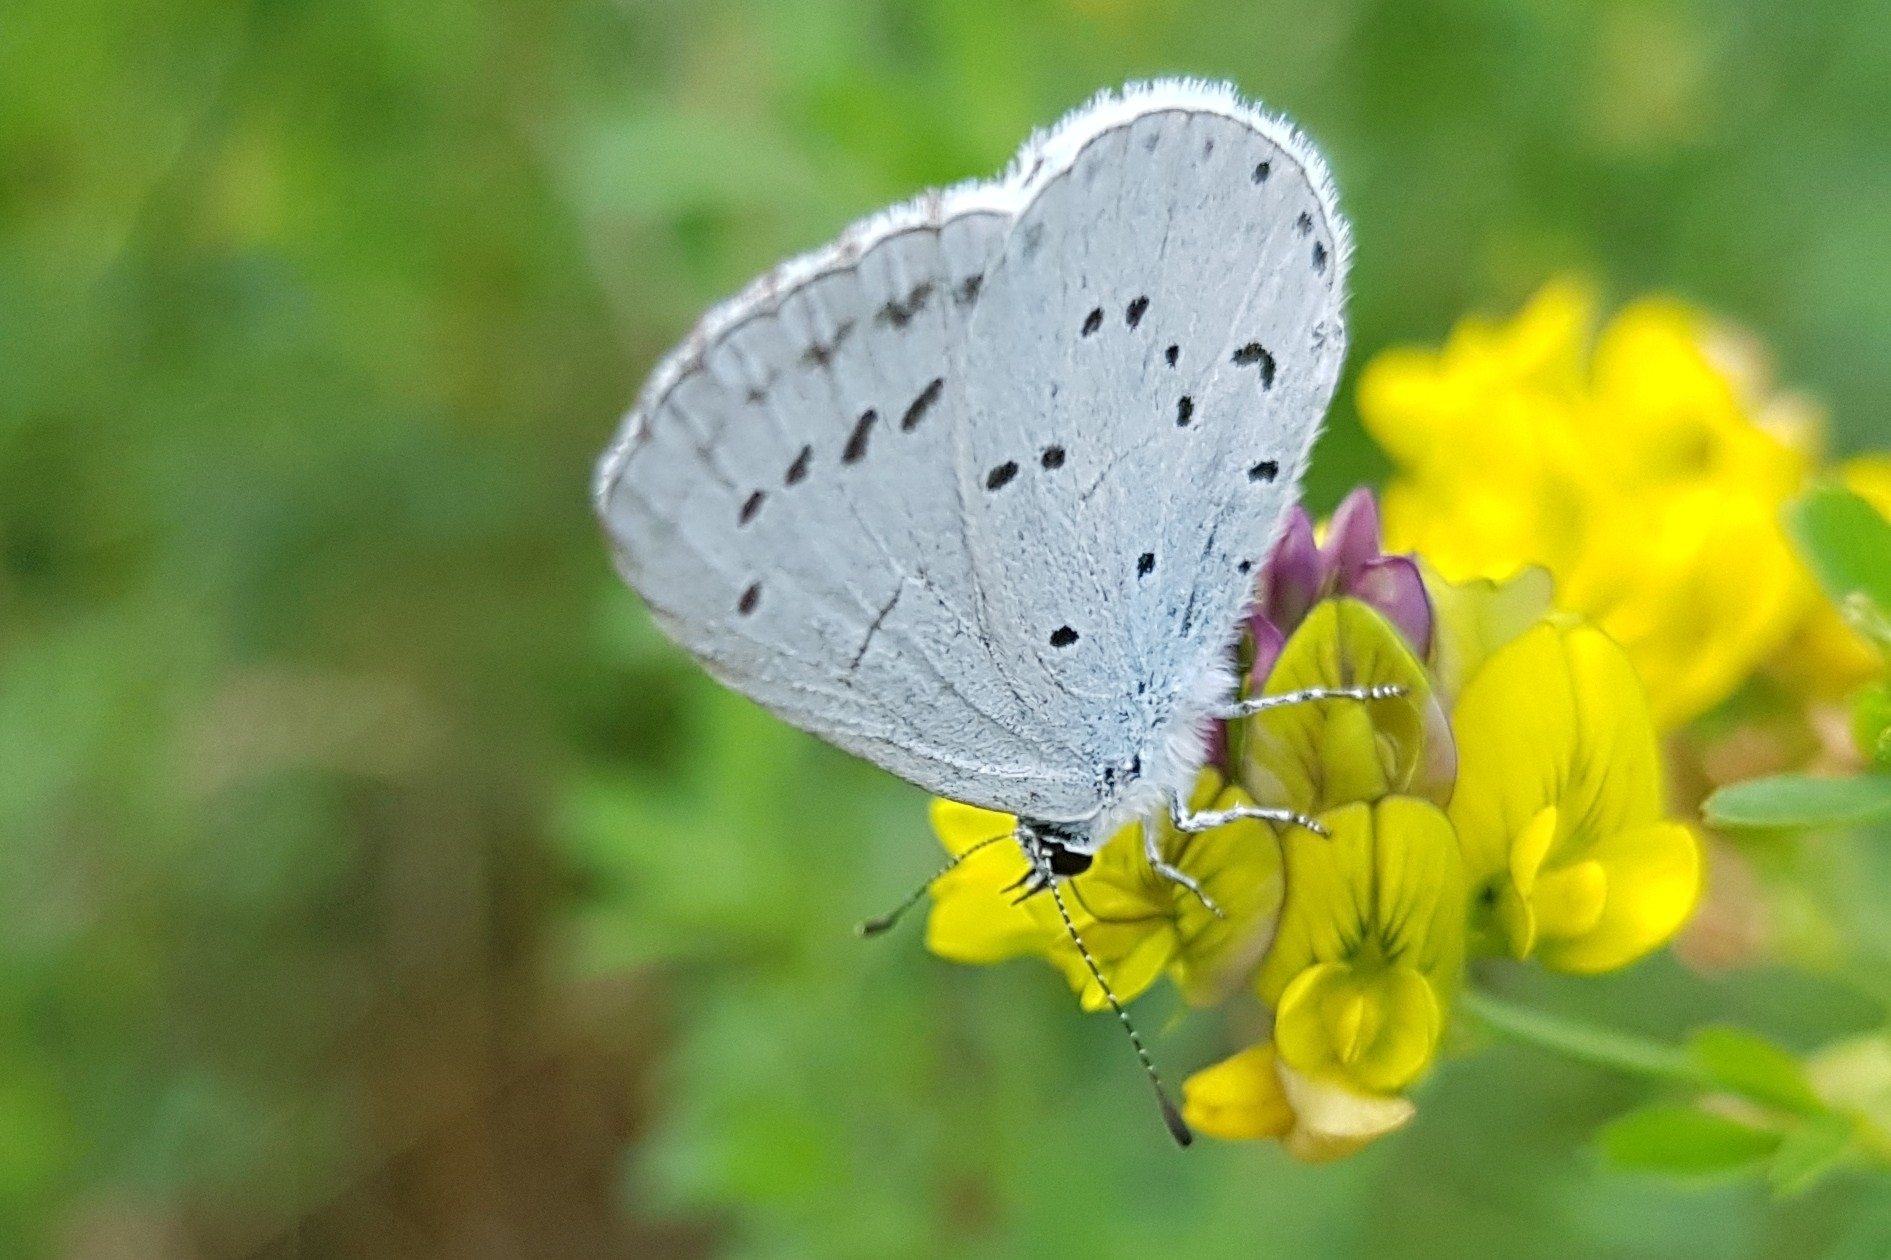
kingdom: Animalia
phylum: Arthropoda
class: Insecta
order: Lepidoptera
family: Lycaenidae
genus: Celastrina
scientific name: Celastrina argiolus
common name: Holly blue
